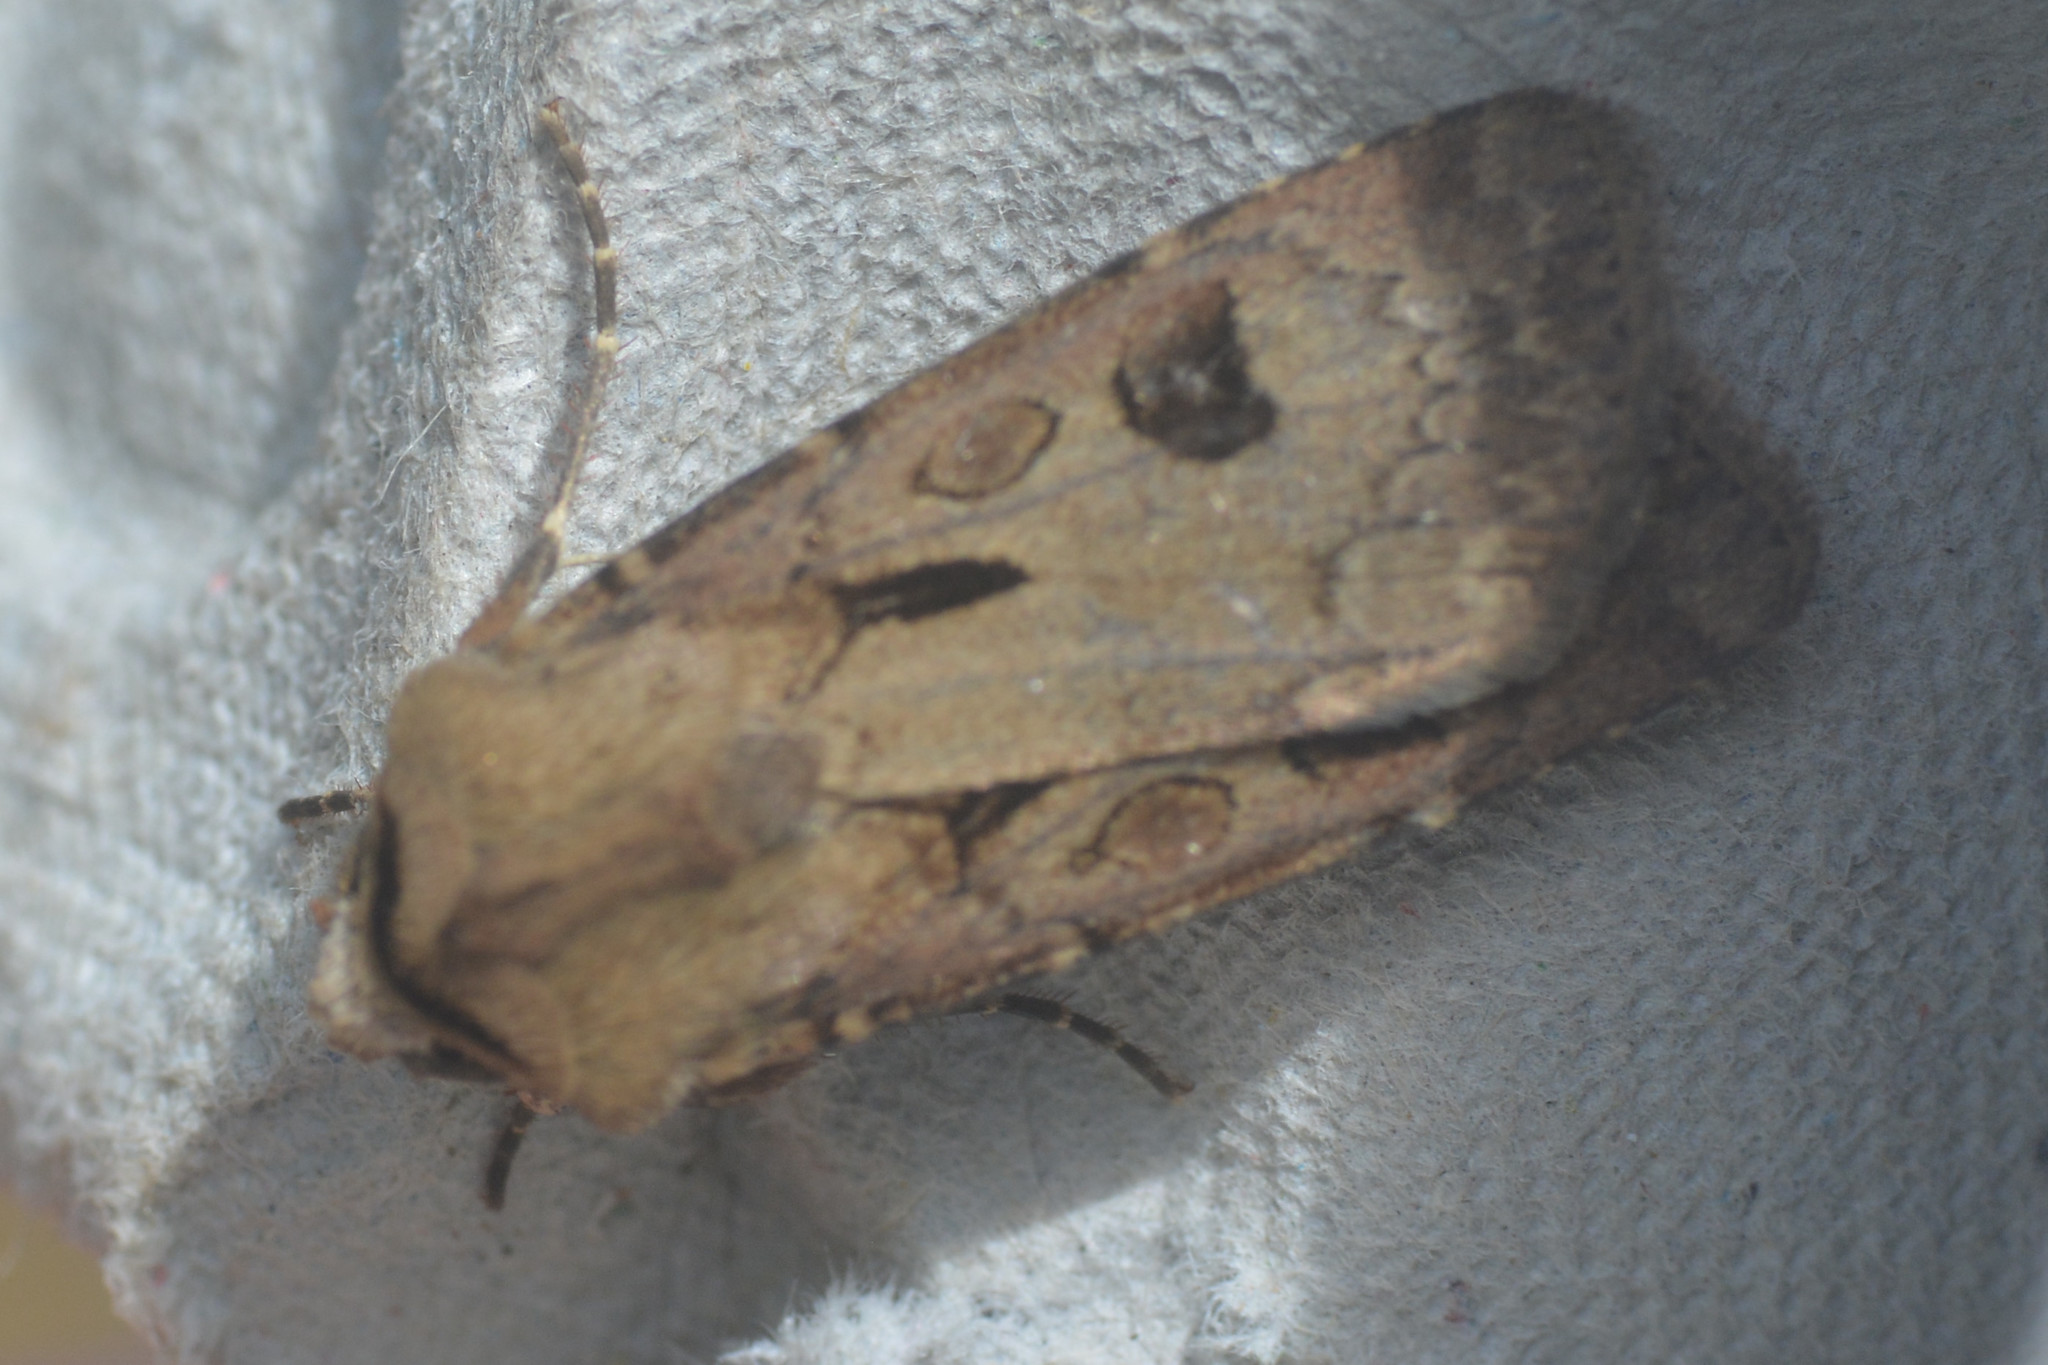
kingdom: Animalia
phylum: Arthropoda
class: Insecta
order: Lepidoptera
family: Noctuidae
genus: Agrotis
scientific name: Agrotis exclamationis
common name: Heart and dart
